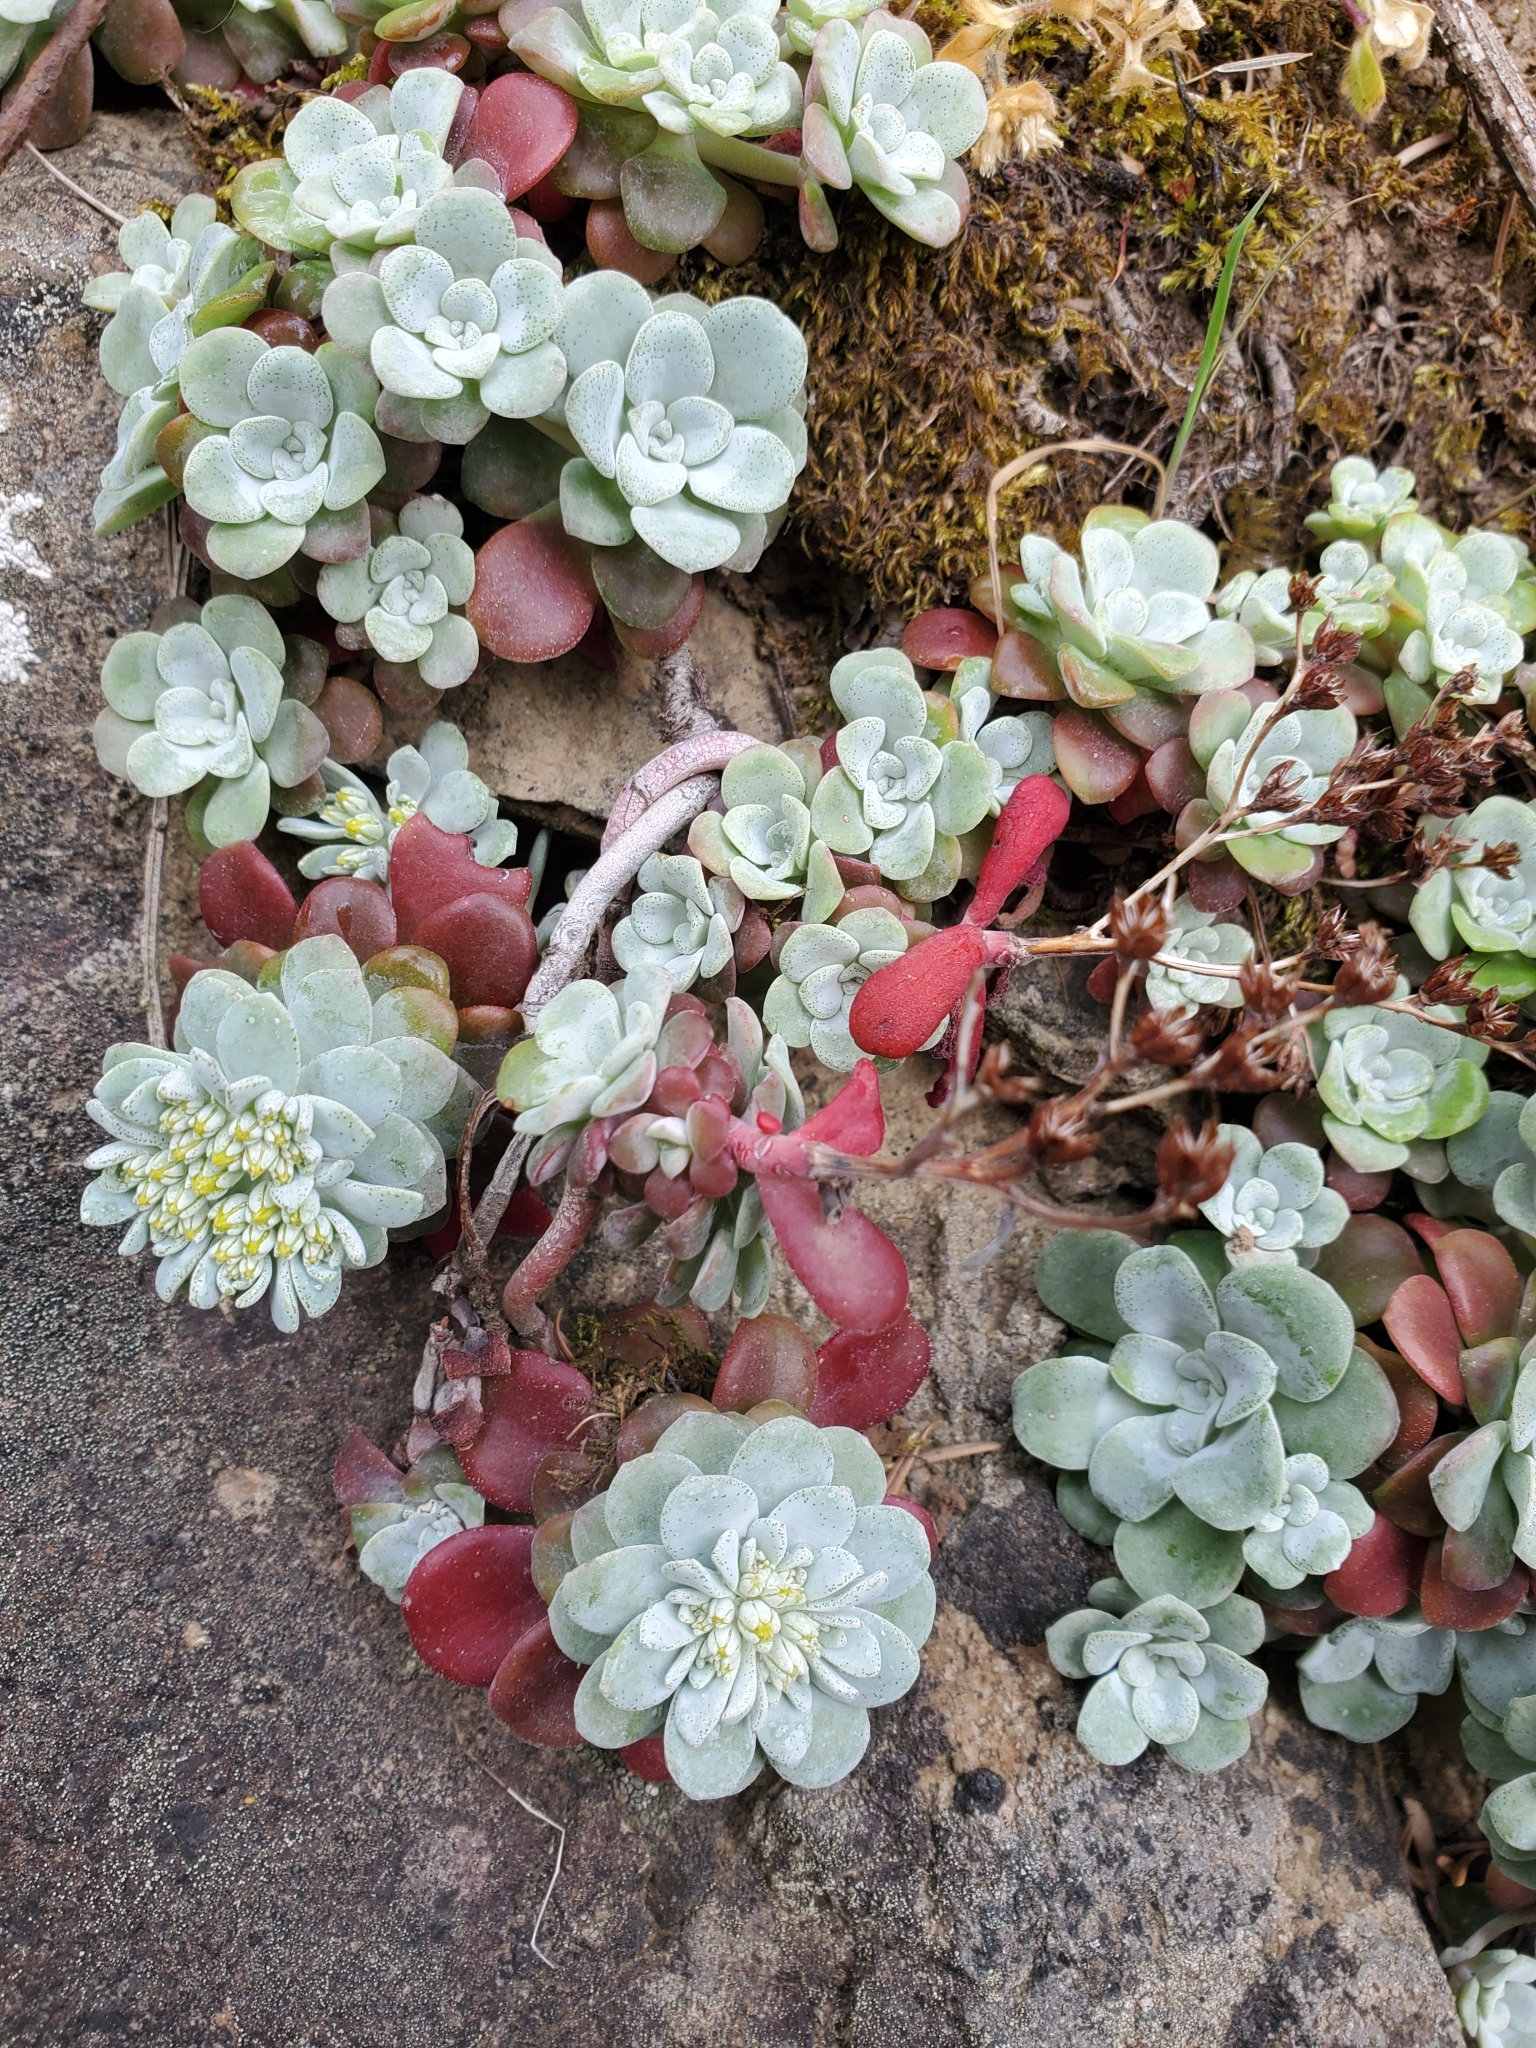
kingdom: Plantae
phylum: Tracheophyta
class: Magnoliopsida
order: Saxifragales
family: Crassulaceae
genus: Sedum
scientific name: Sedum spathulifolium
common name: Colorado stonecrop
